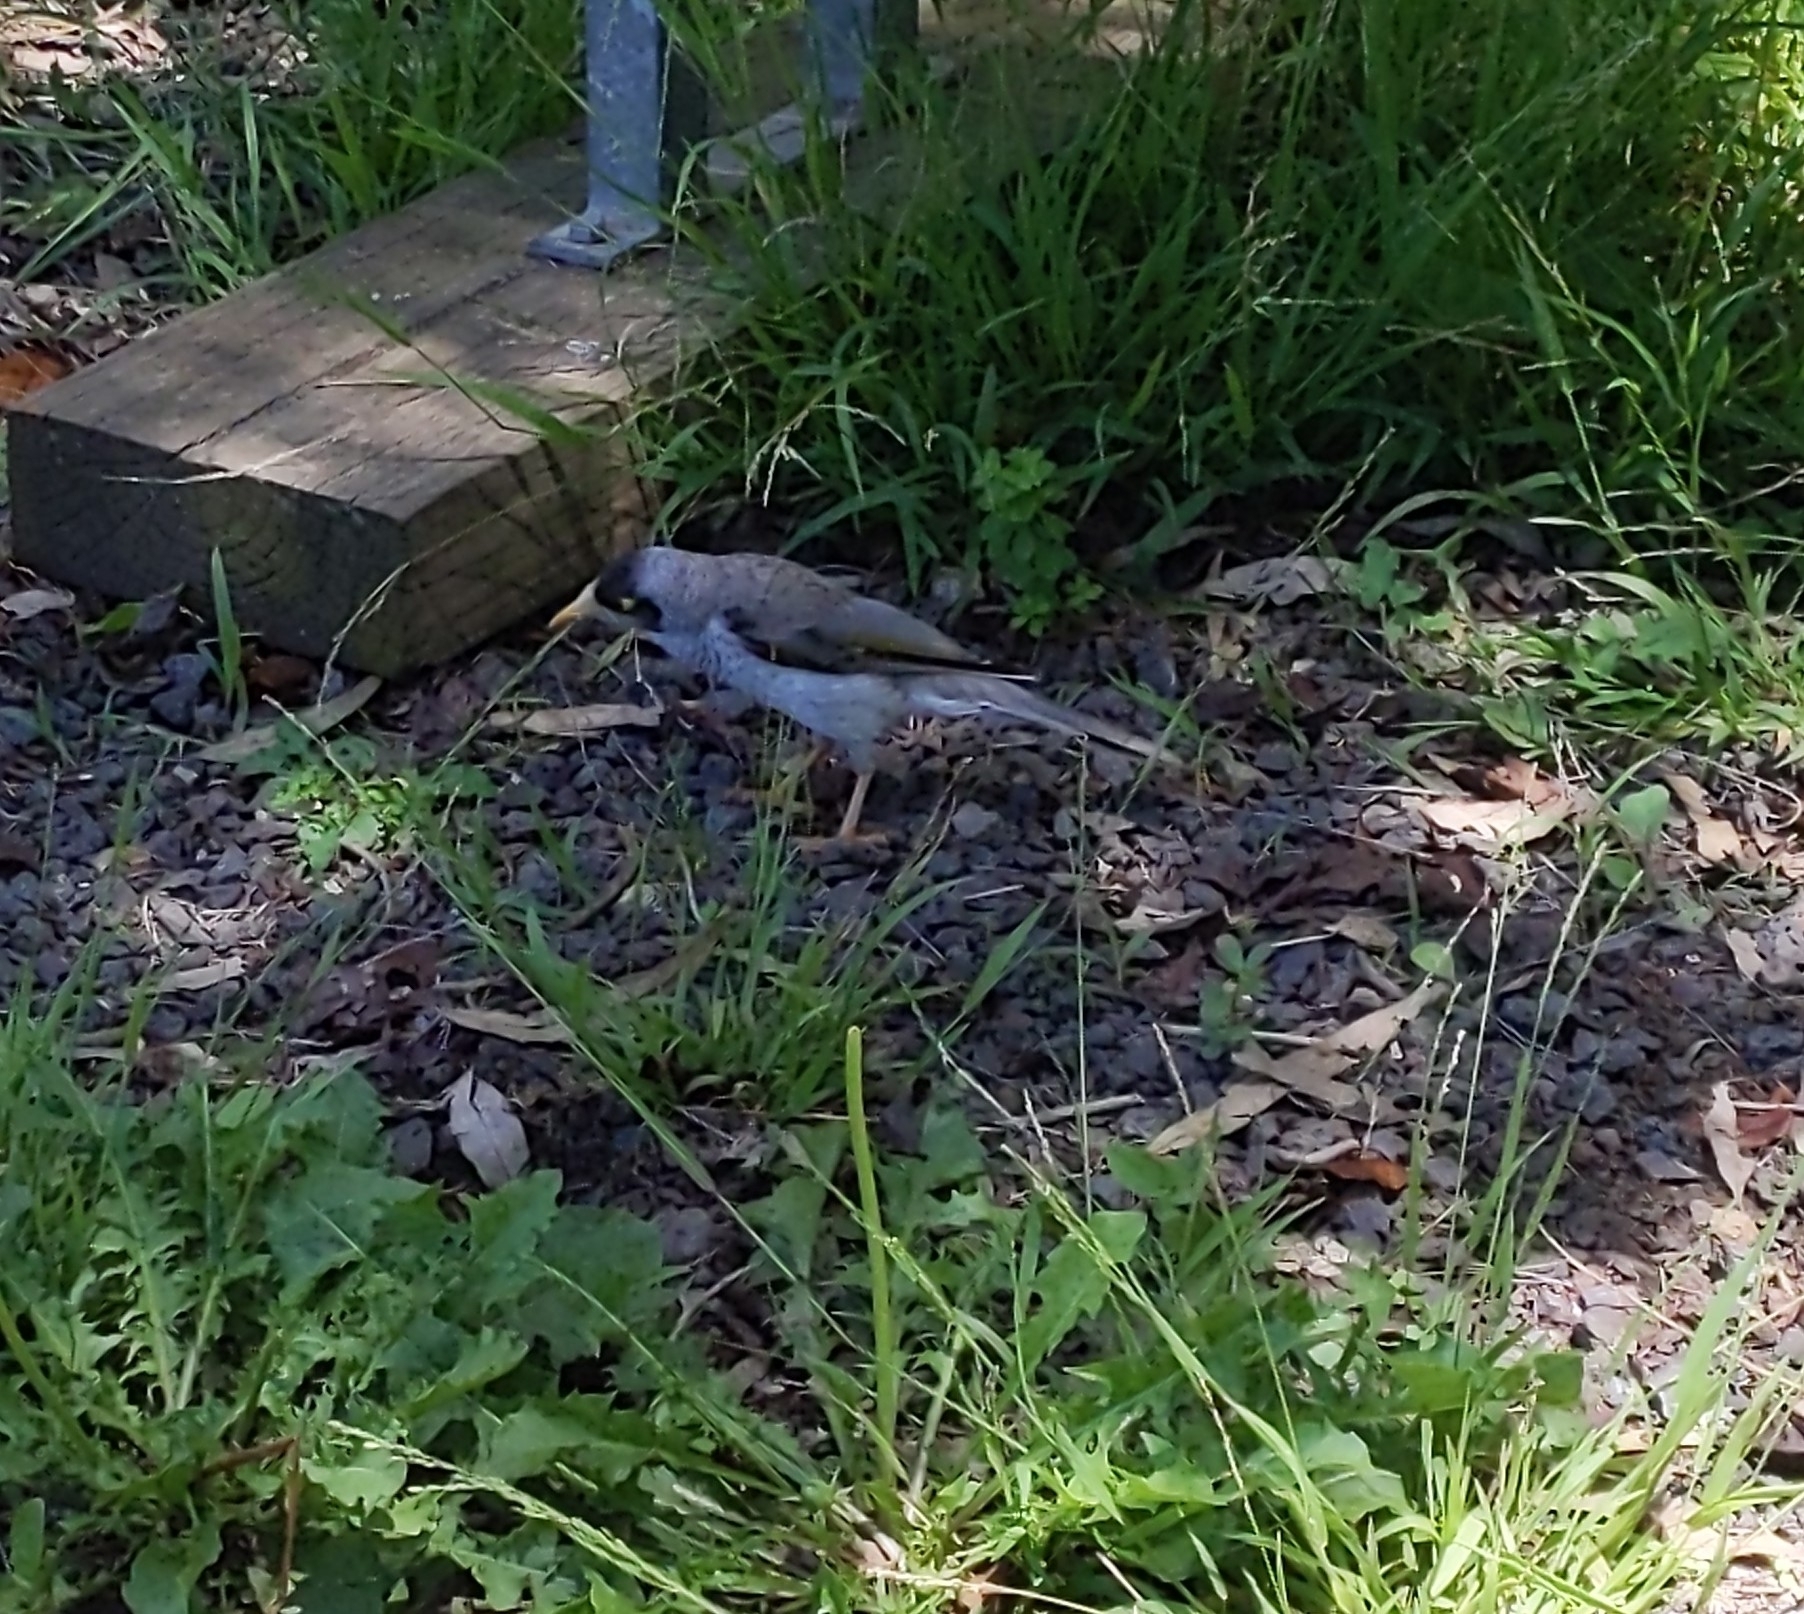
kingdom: Animalia
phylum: Chordata
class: Aves
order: Passeriformes
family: Meliphagidae
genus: Manorina
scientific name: Manorina melanocephala
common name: Noisy miner
